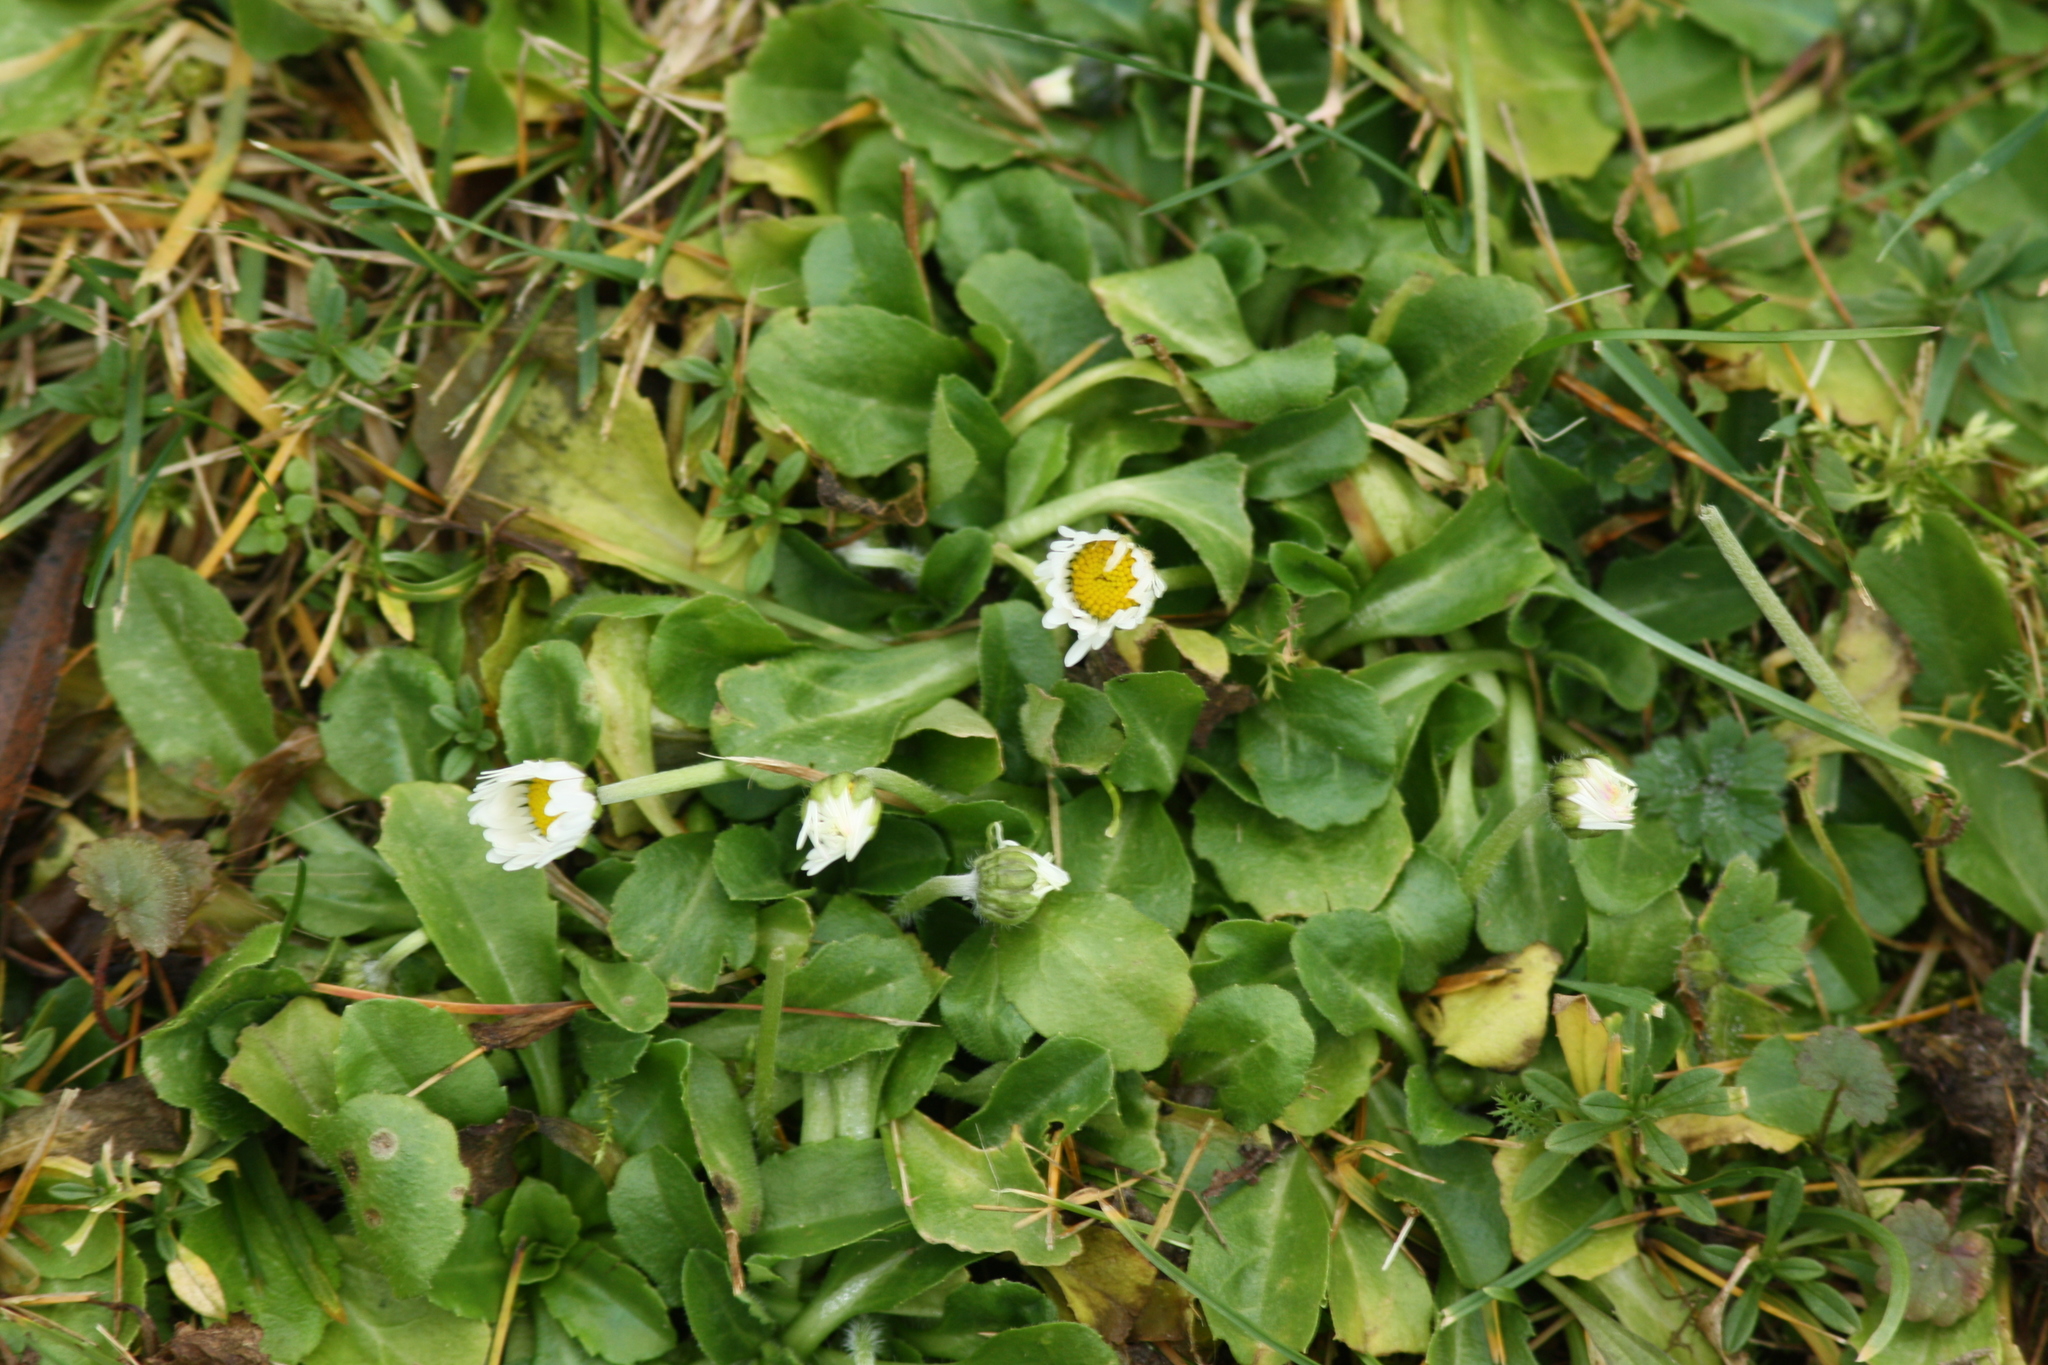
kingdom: Plantae
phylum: Tracheophyta
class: Magnoliopsida
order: Asterales
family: Asteraceae
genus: Bellis
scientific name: Bellis perennis
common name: Lawndaisy
